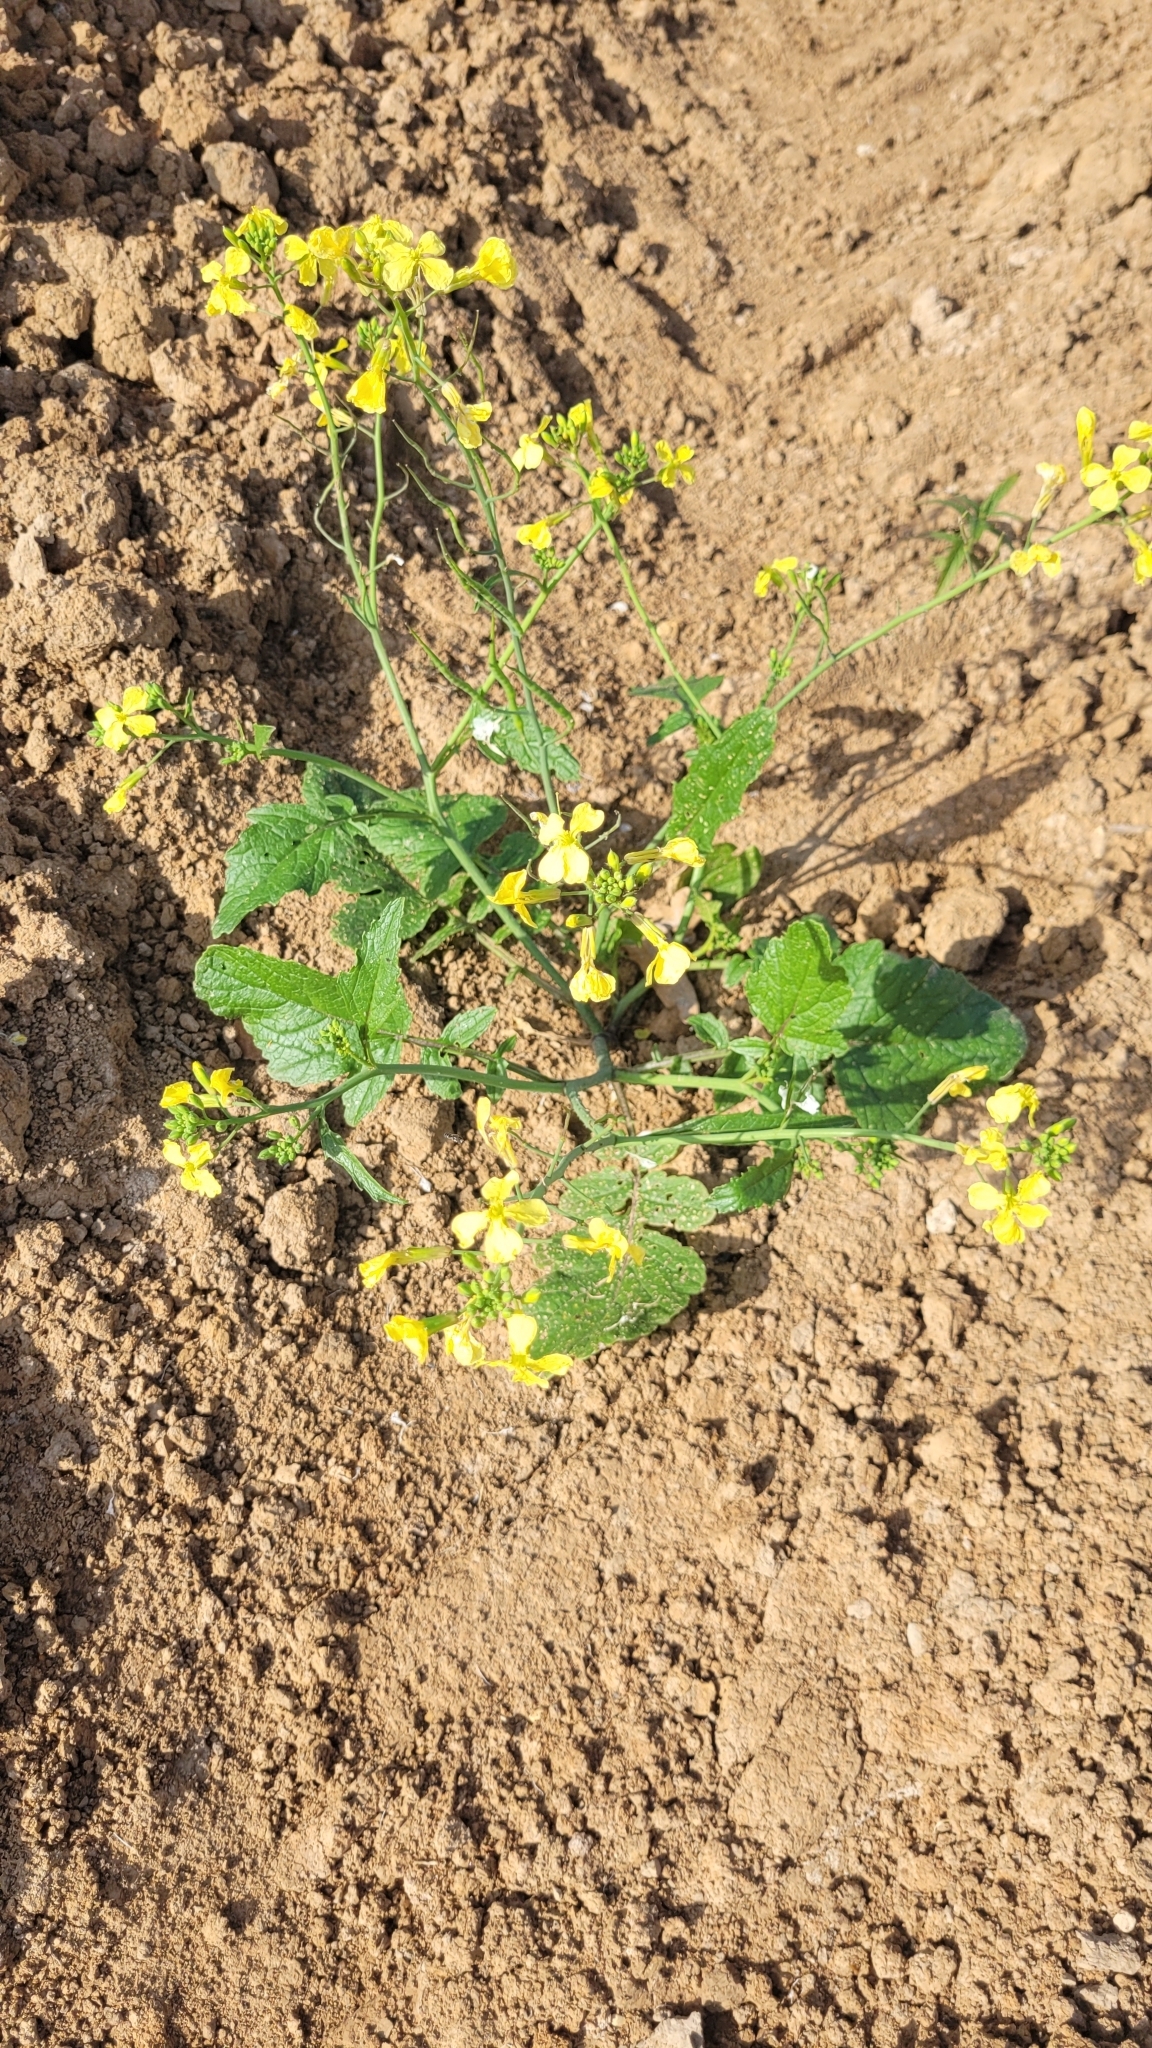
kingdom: Plantae
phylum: Tracheophyta
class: Magnoliopsida
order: Brassicales
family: Brassicaceae
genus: Raphanus
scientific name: Raphanus raphanistrum
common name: Wild radish
